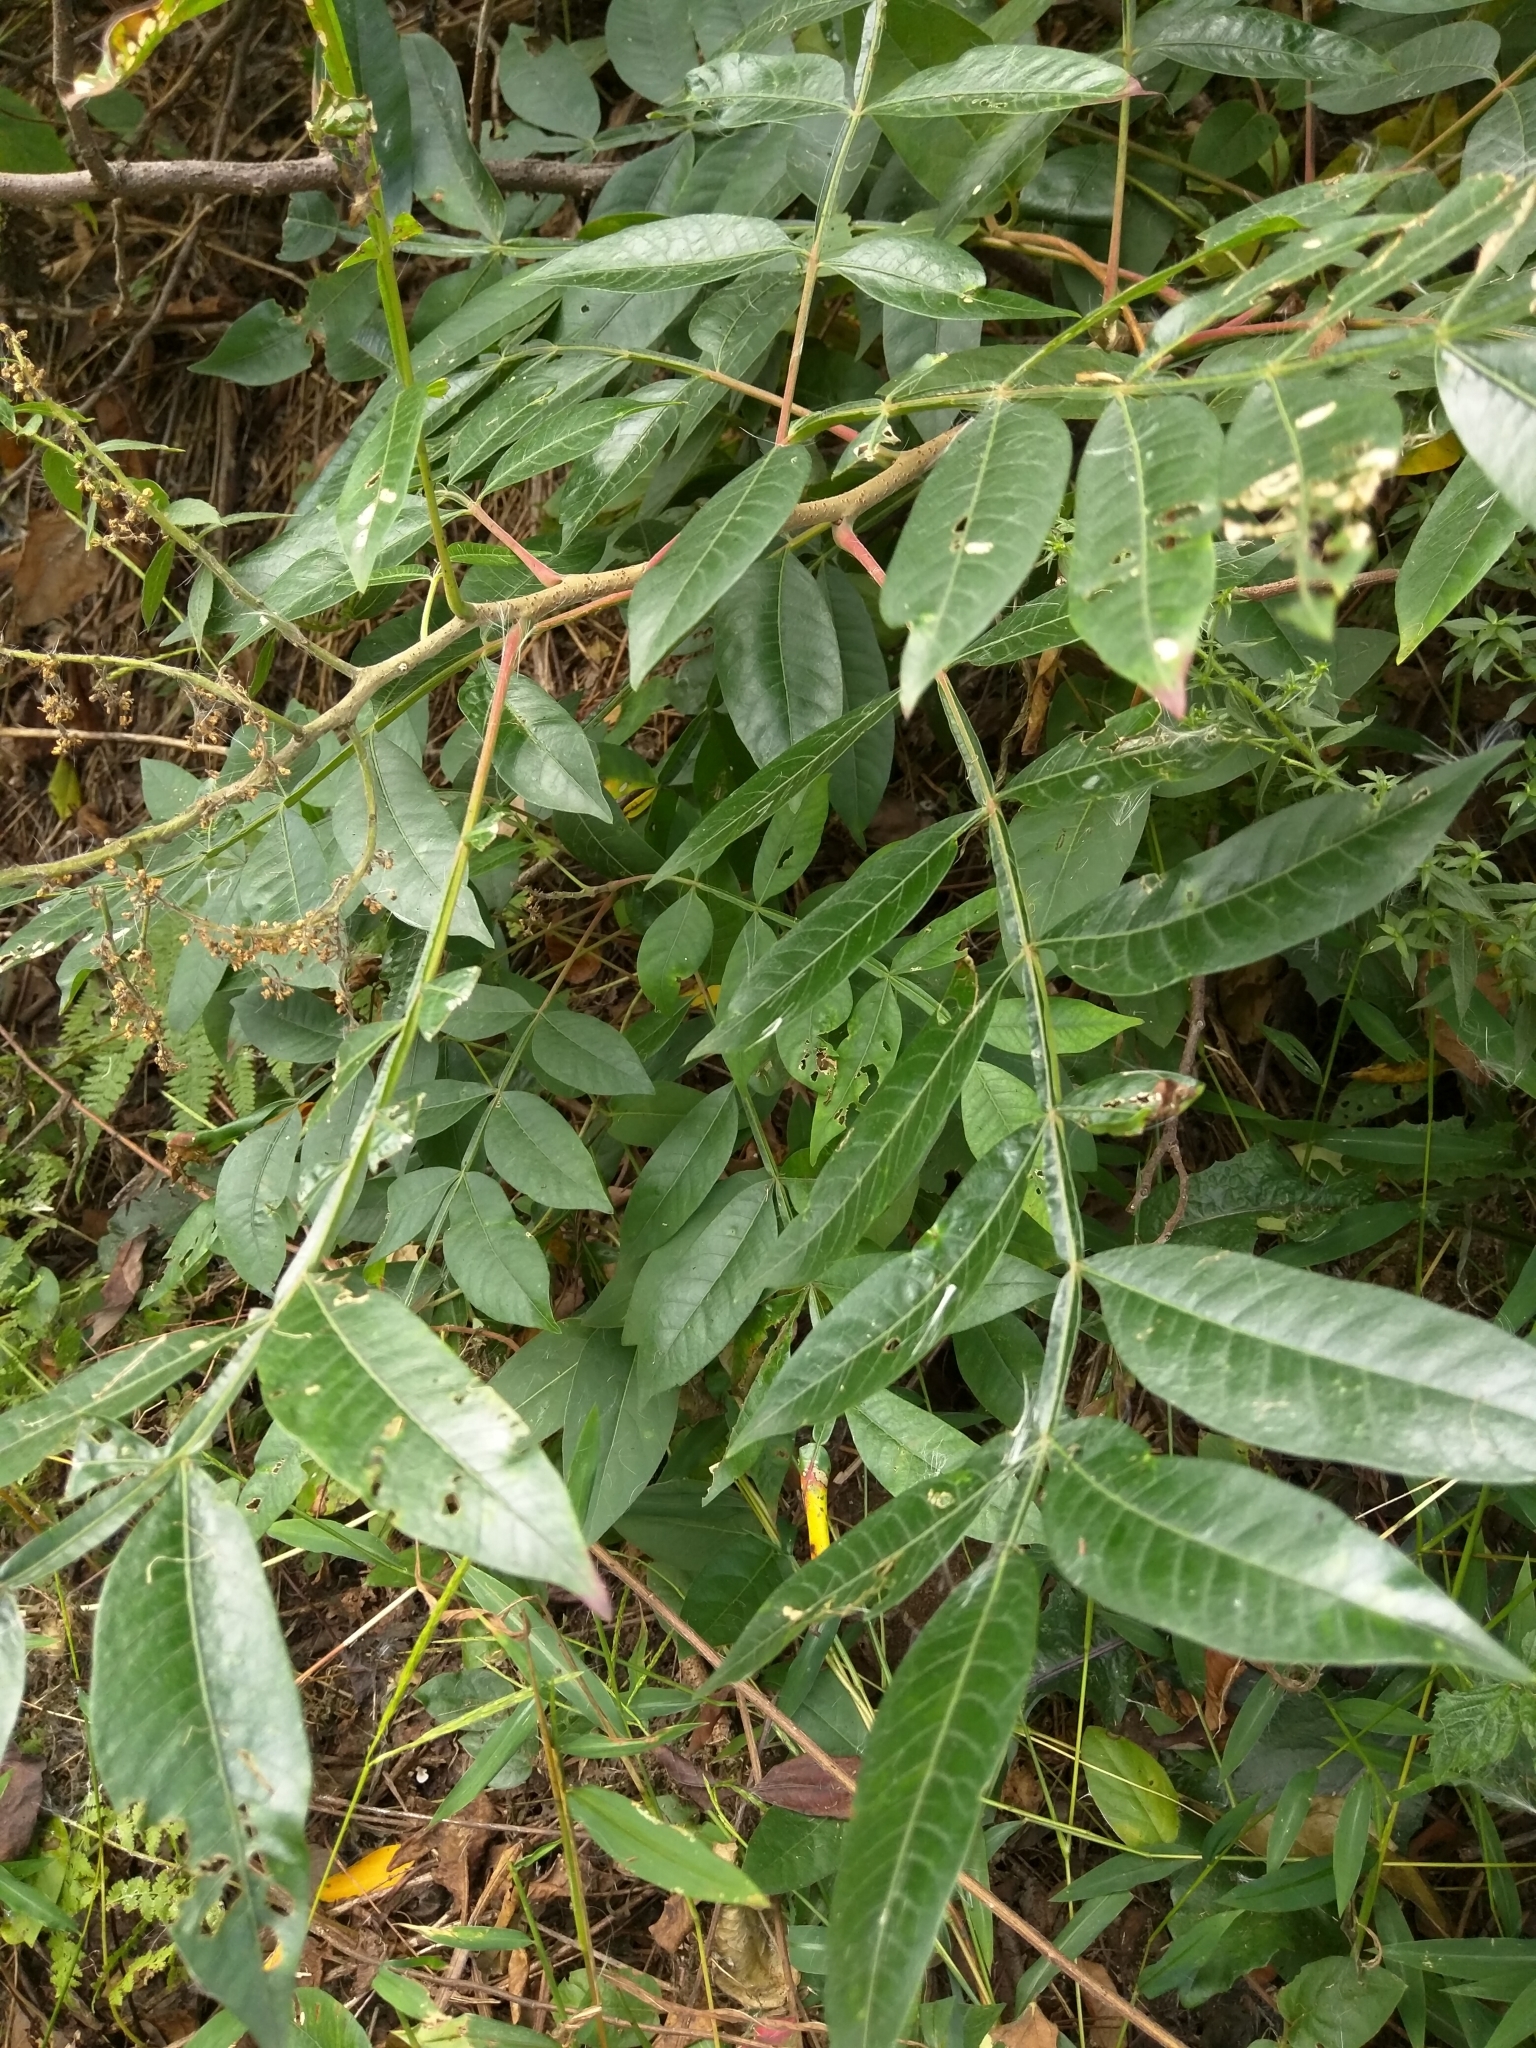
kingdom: Plantae
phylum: Tracheophyta
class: Magnoliopsida
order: Sapindales
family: Anacardiaceae
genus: Rhus
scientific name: Rhus copallina
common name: Shining sumac
